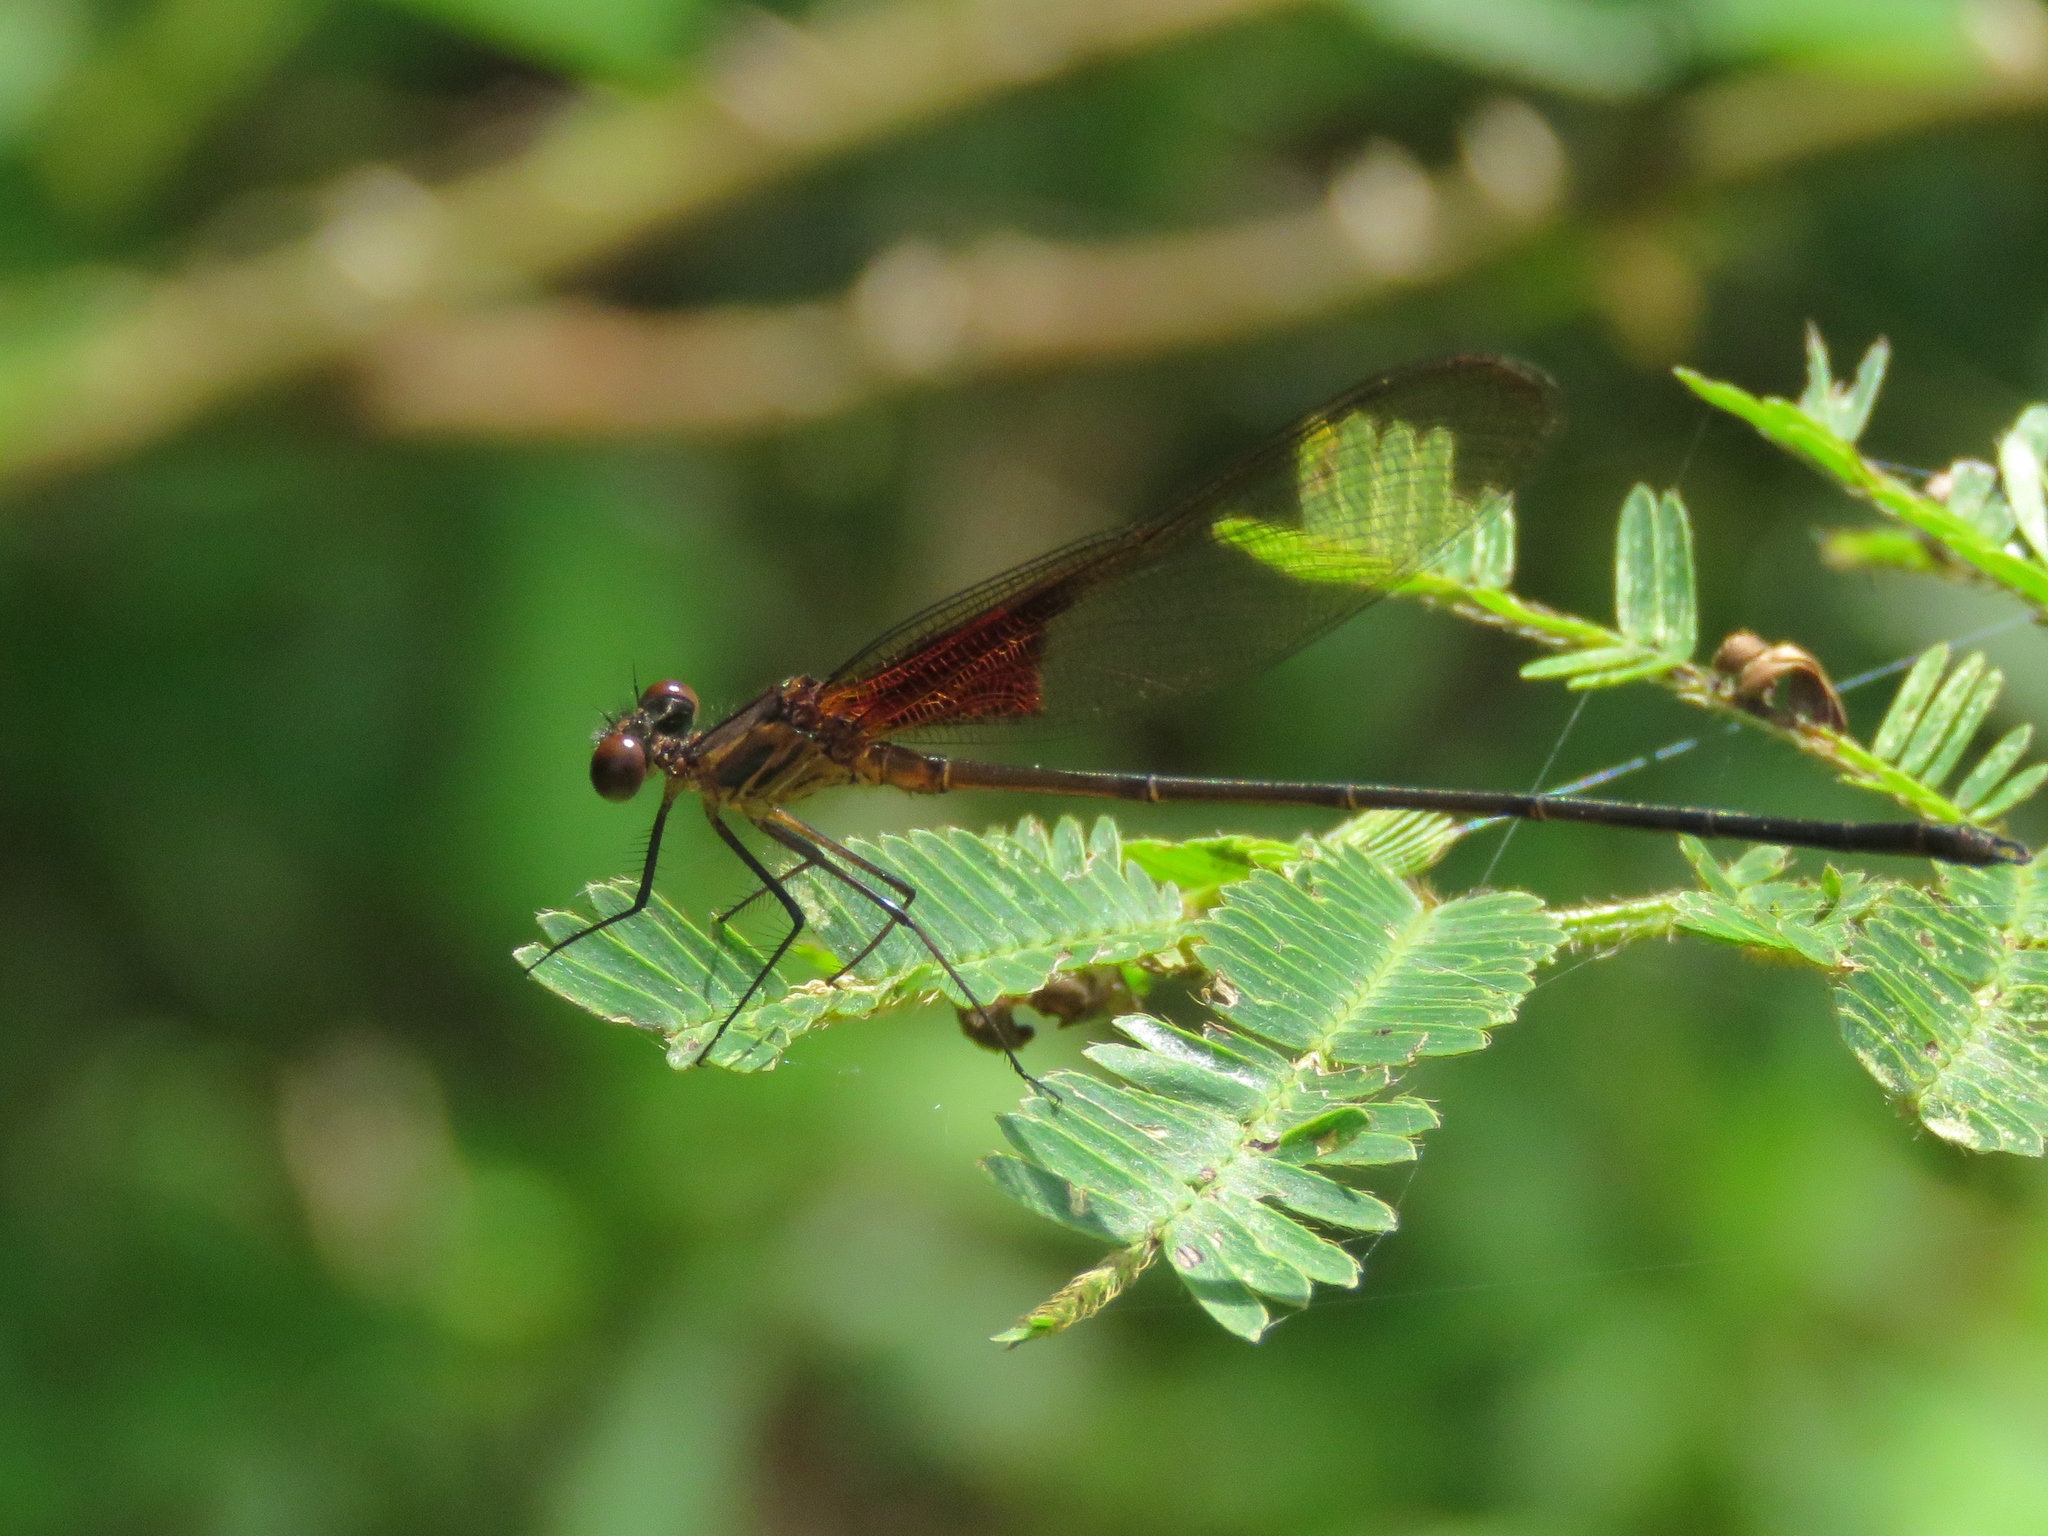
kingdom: Animalia
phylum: Arthropoda
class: Insecta
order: Odonata
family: Calopterygidae
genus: Hetaerina
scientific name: Hetaerina titia
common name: Smoky rubyspot
